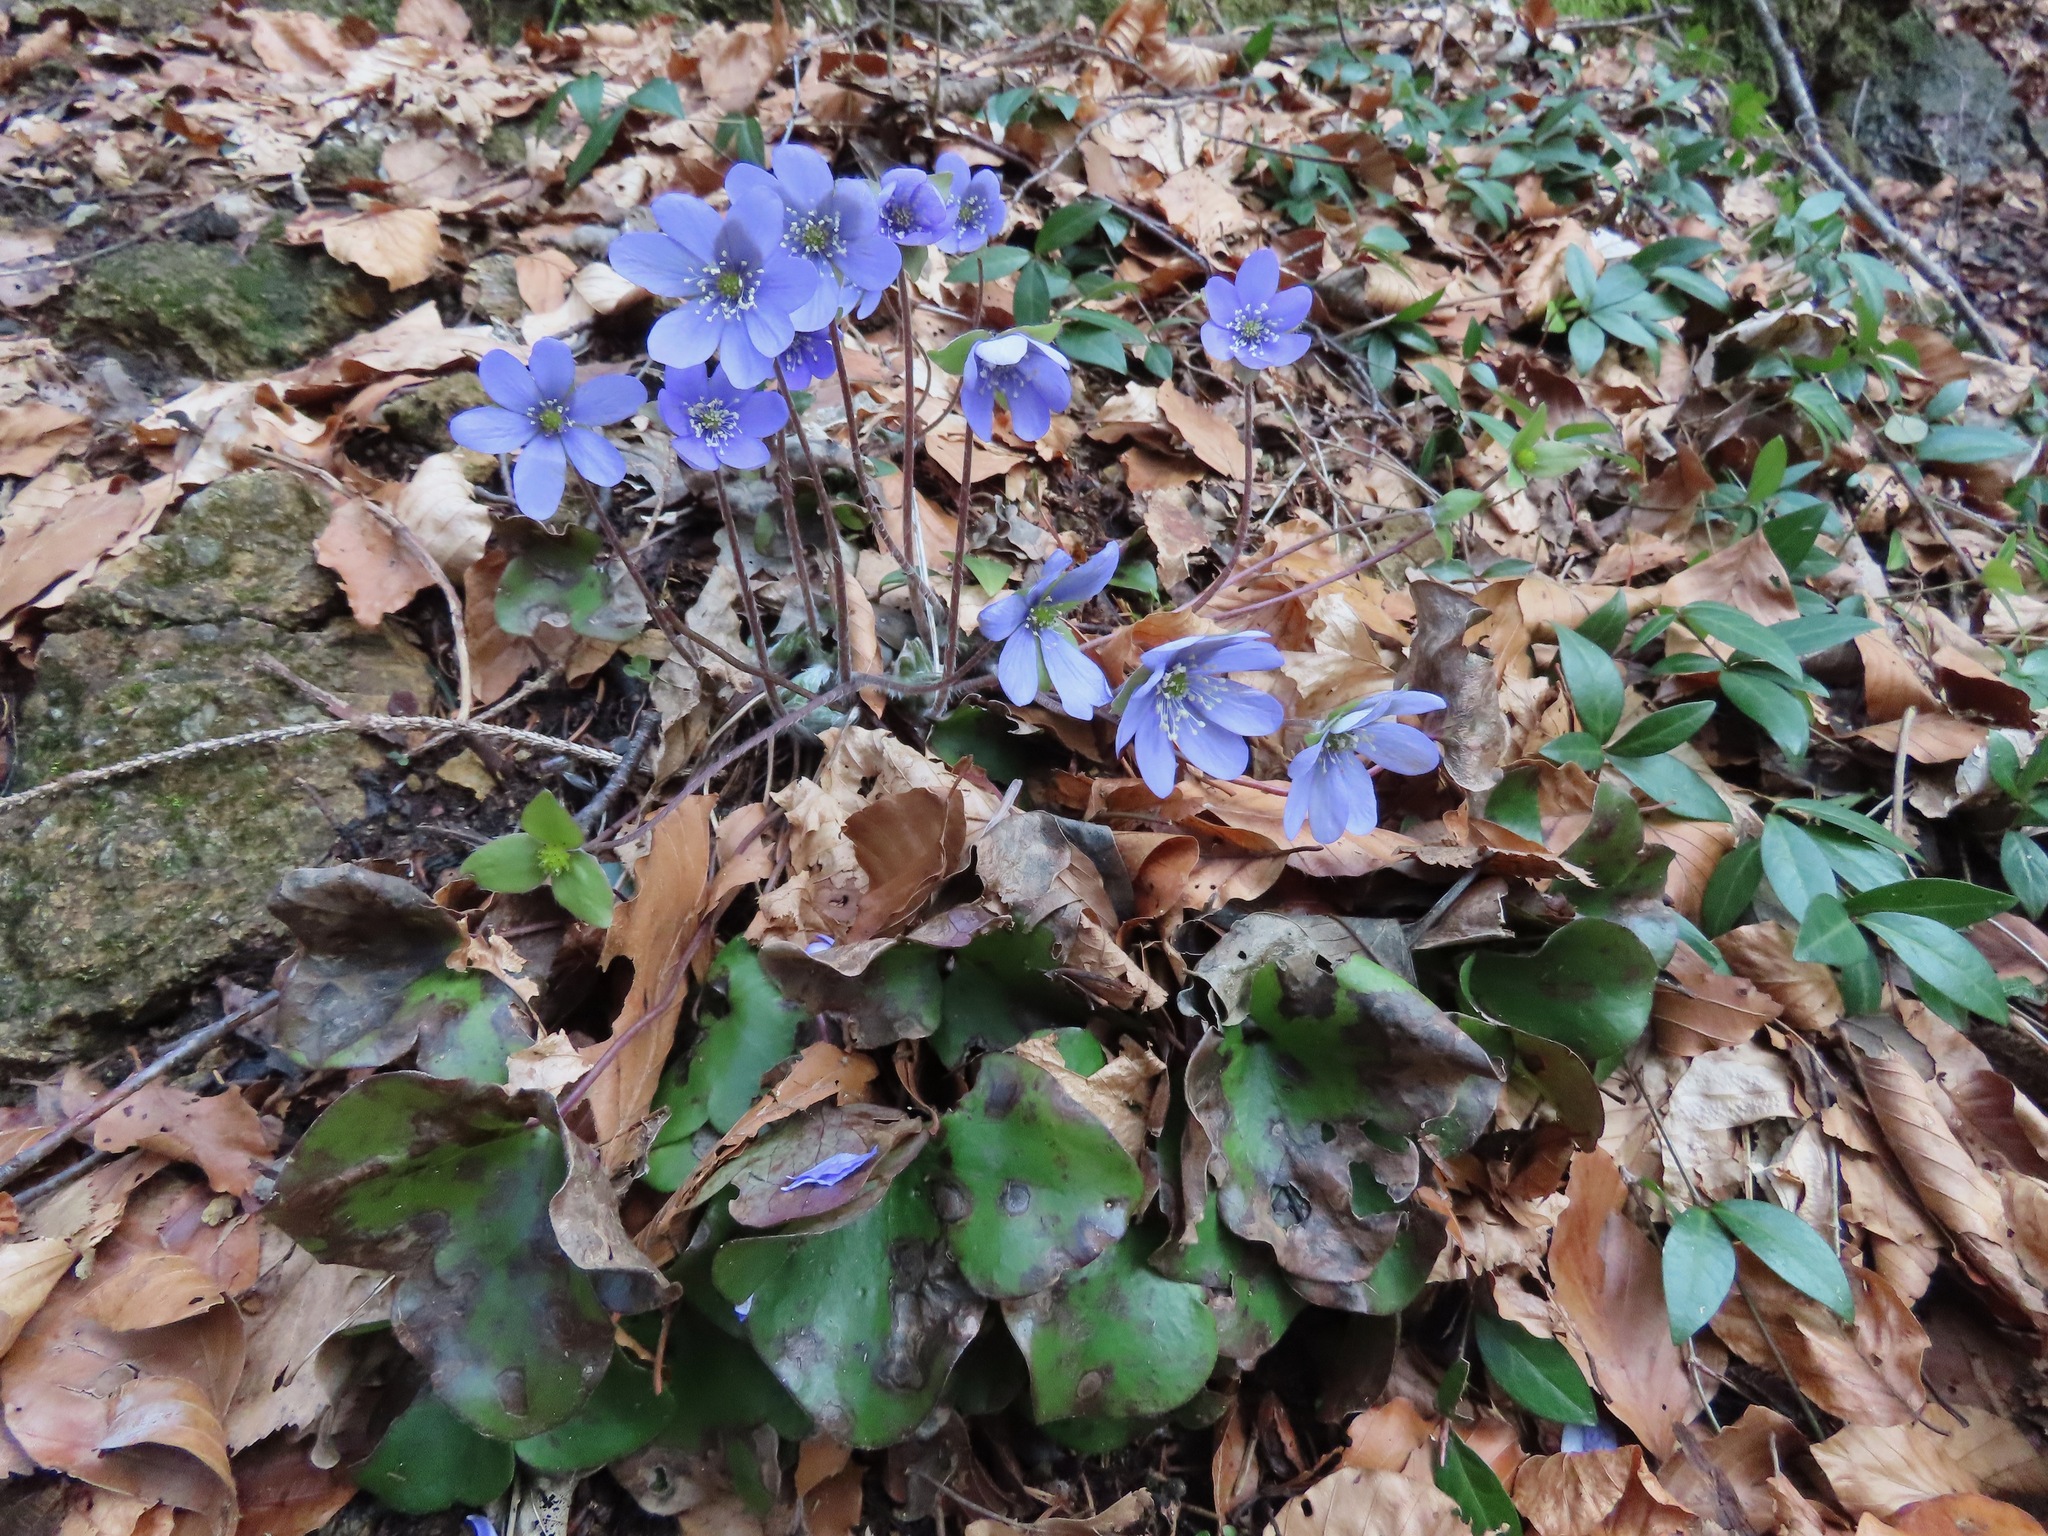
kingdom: Plantae
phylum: Tracheophyta
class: Magnoliopsida
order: Ranunculales
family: Ranunculaceae
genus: Hepatica
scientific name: Hepatica nobilis
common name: Liverleaf
